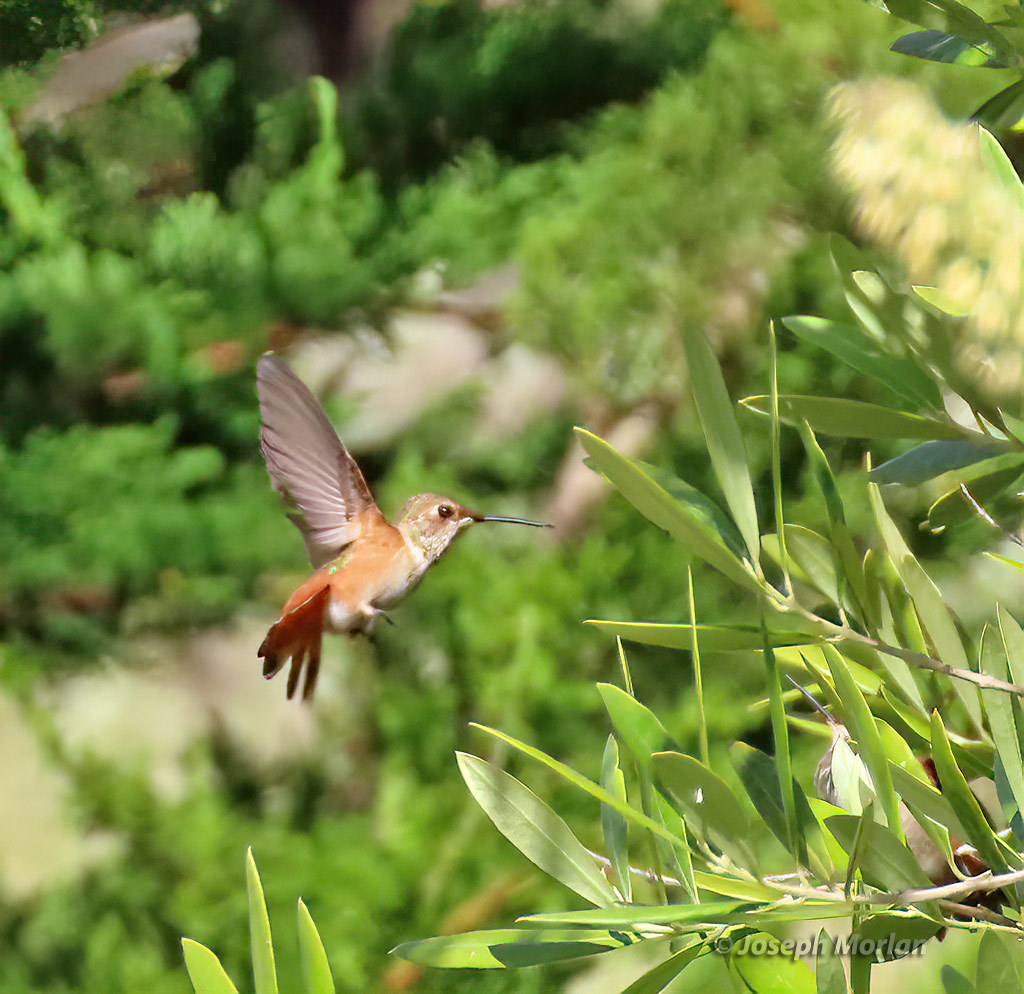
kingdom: Animalia
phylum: Chordata
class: Aves
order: Apodiformes
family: Trochilidae
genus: Selasphorus
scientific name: Selasphorus sasin
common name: Allen's hummingbird
